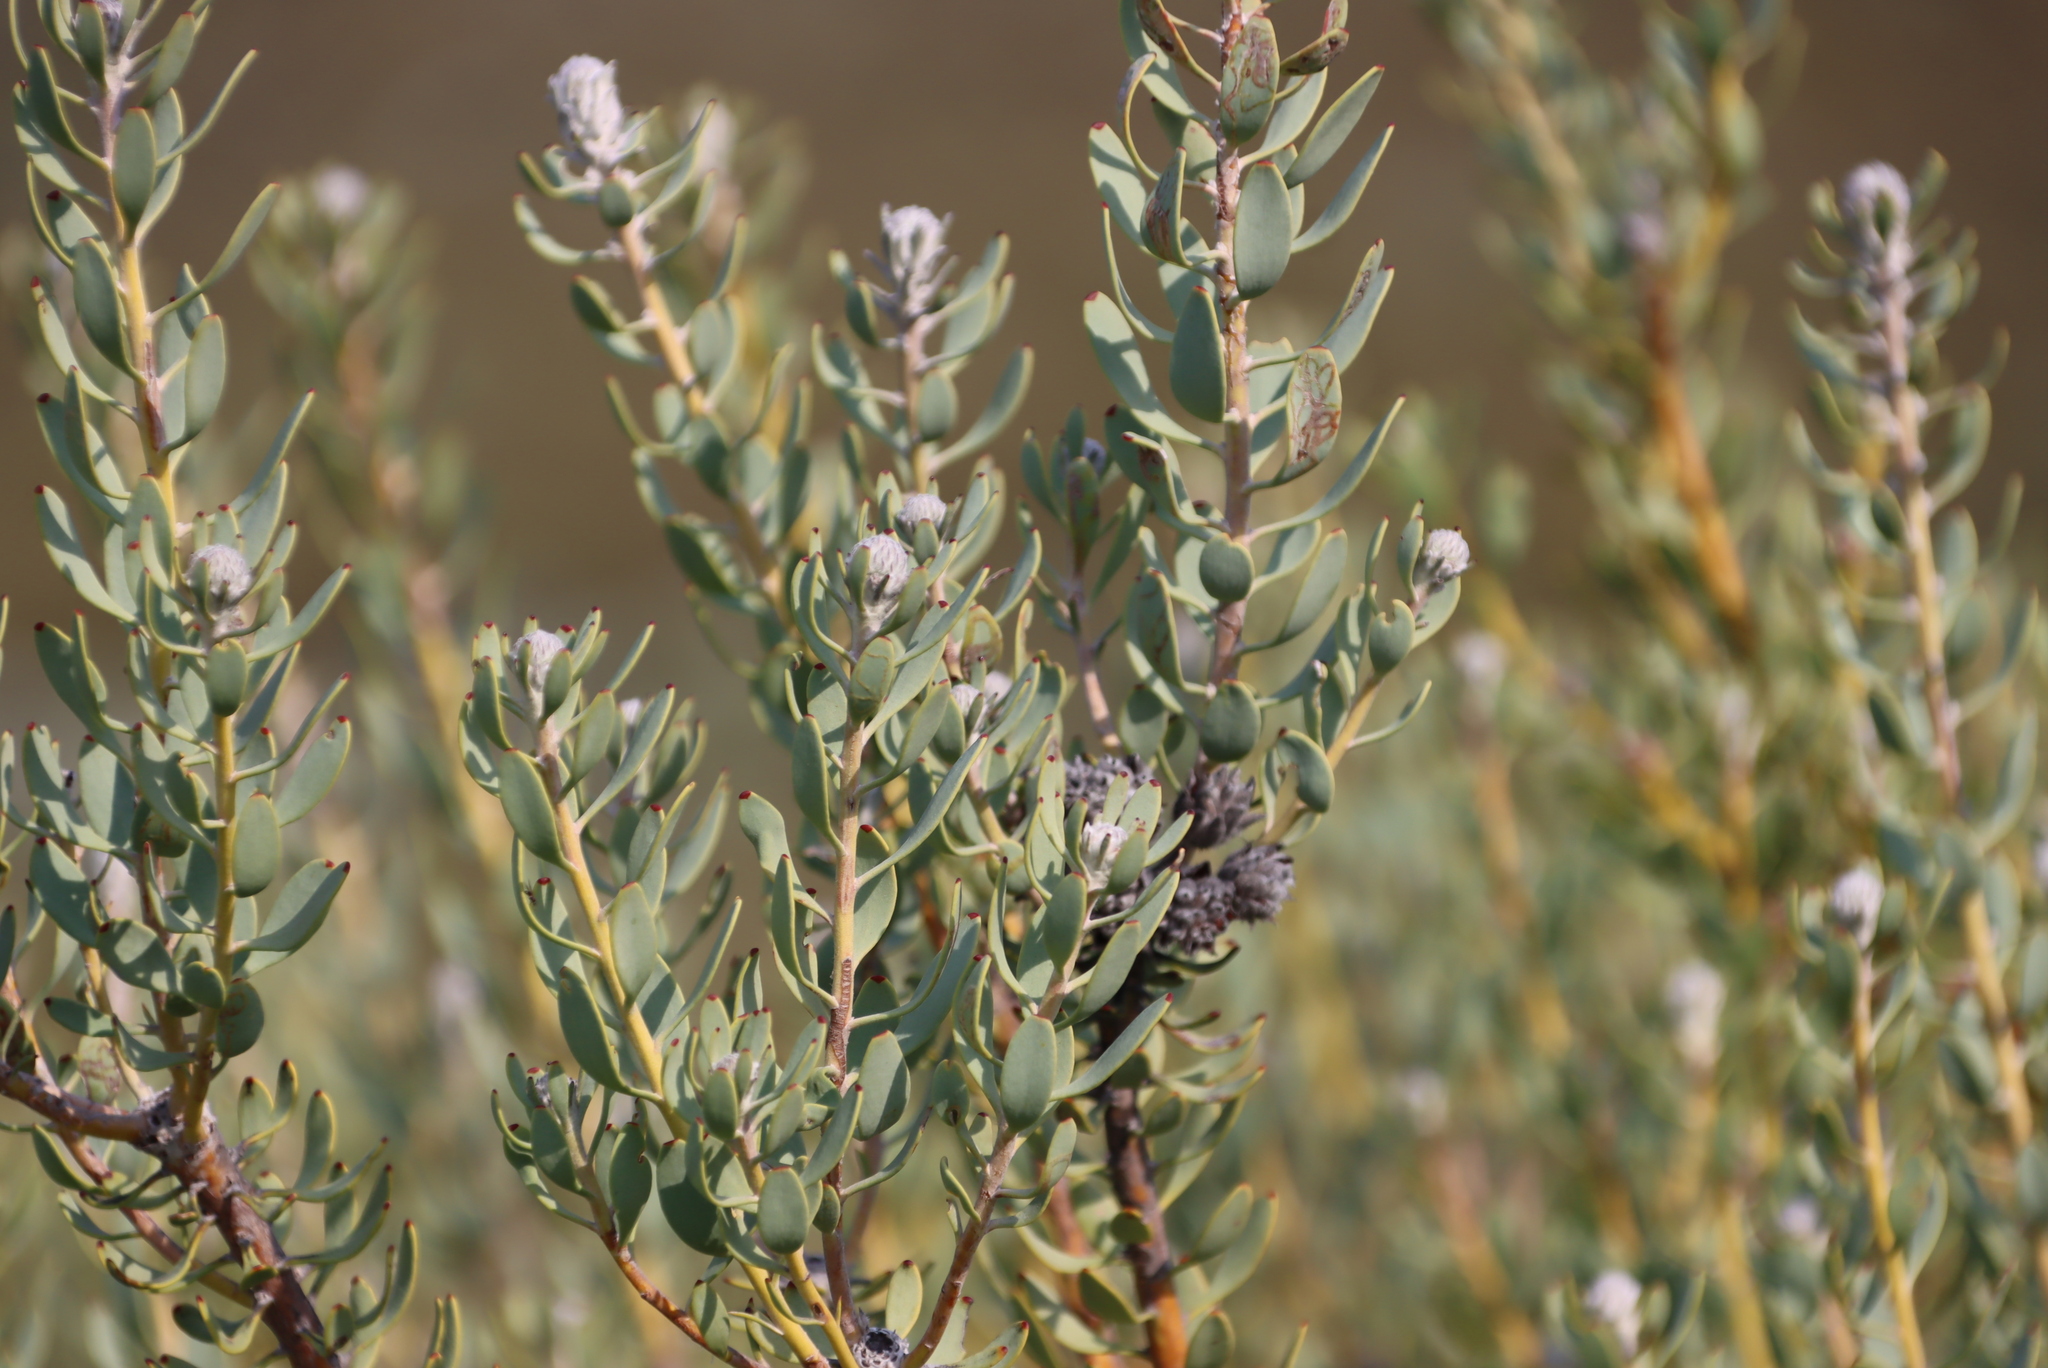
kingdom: Plantae
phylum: Tracheophyta
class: Magnoliopsida
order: Proteales
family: Proteaceae
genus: Vexatorella
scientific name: Vexatorella alpina
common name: Kamiesberg vexator
